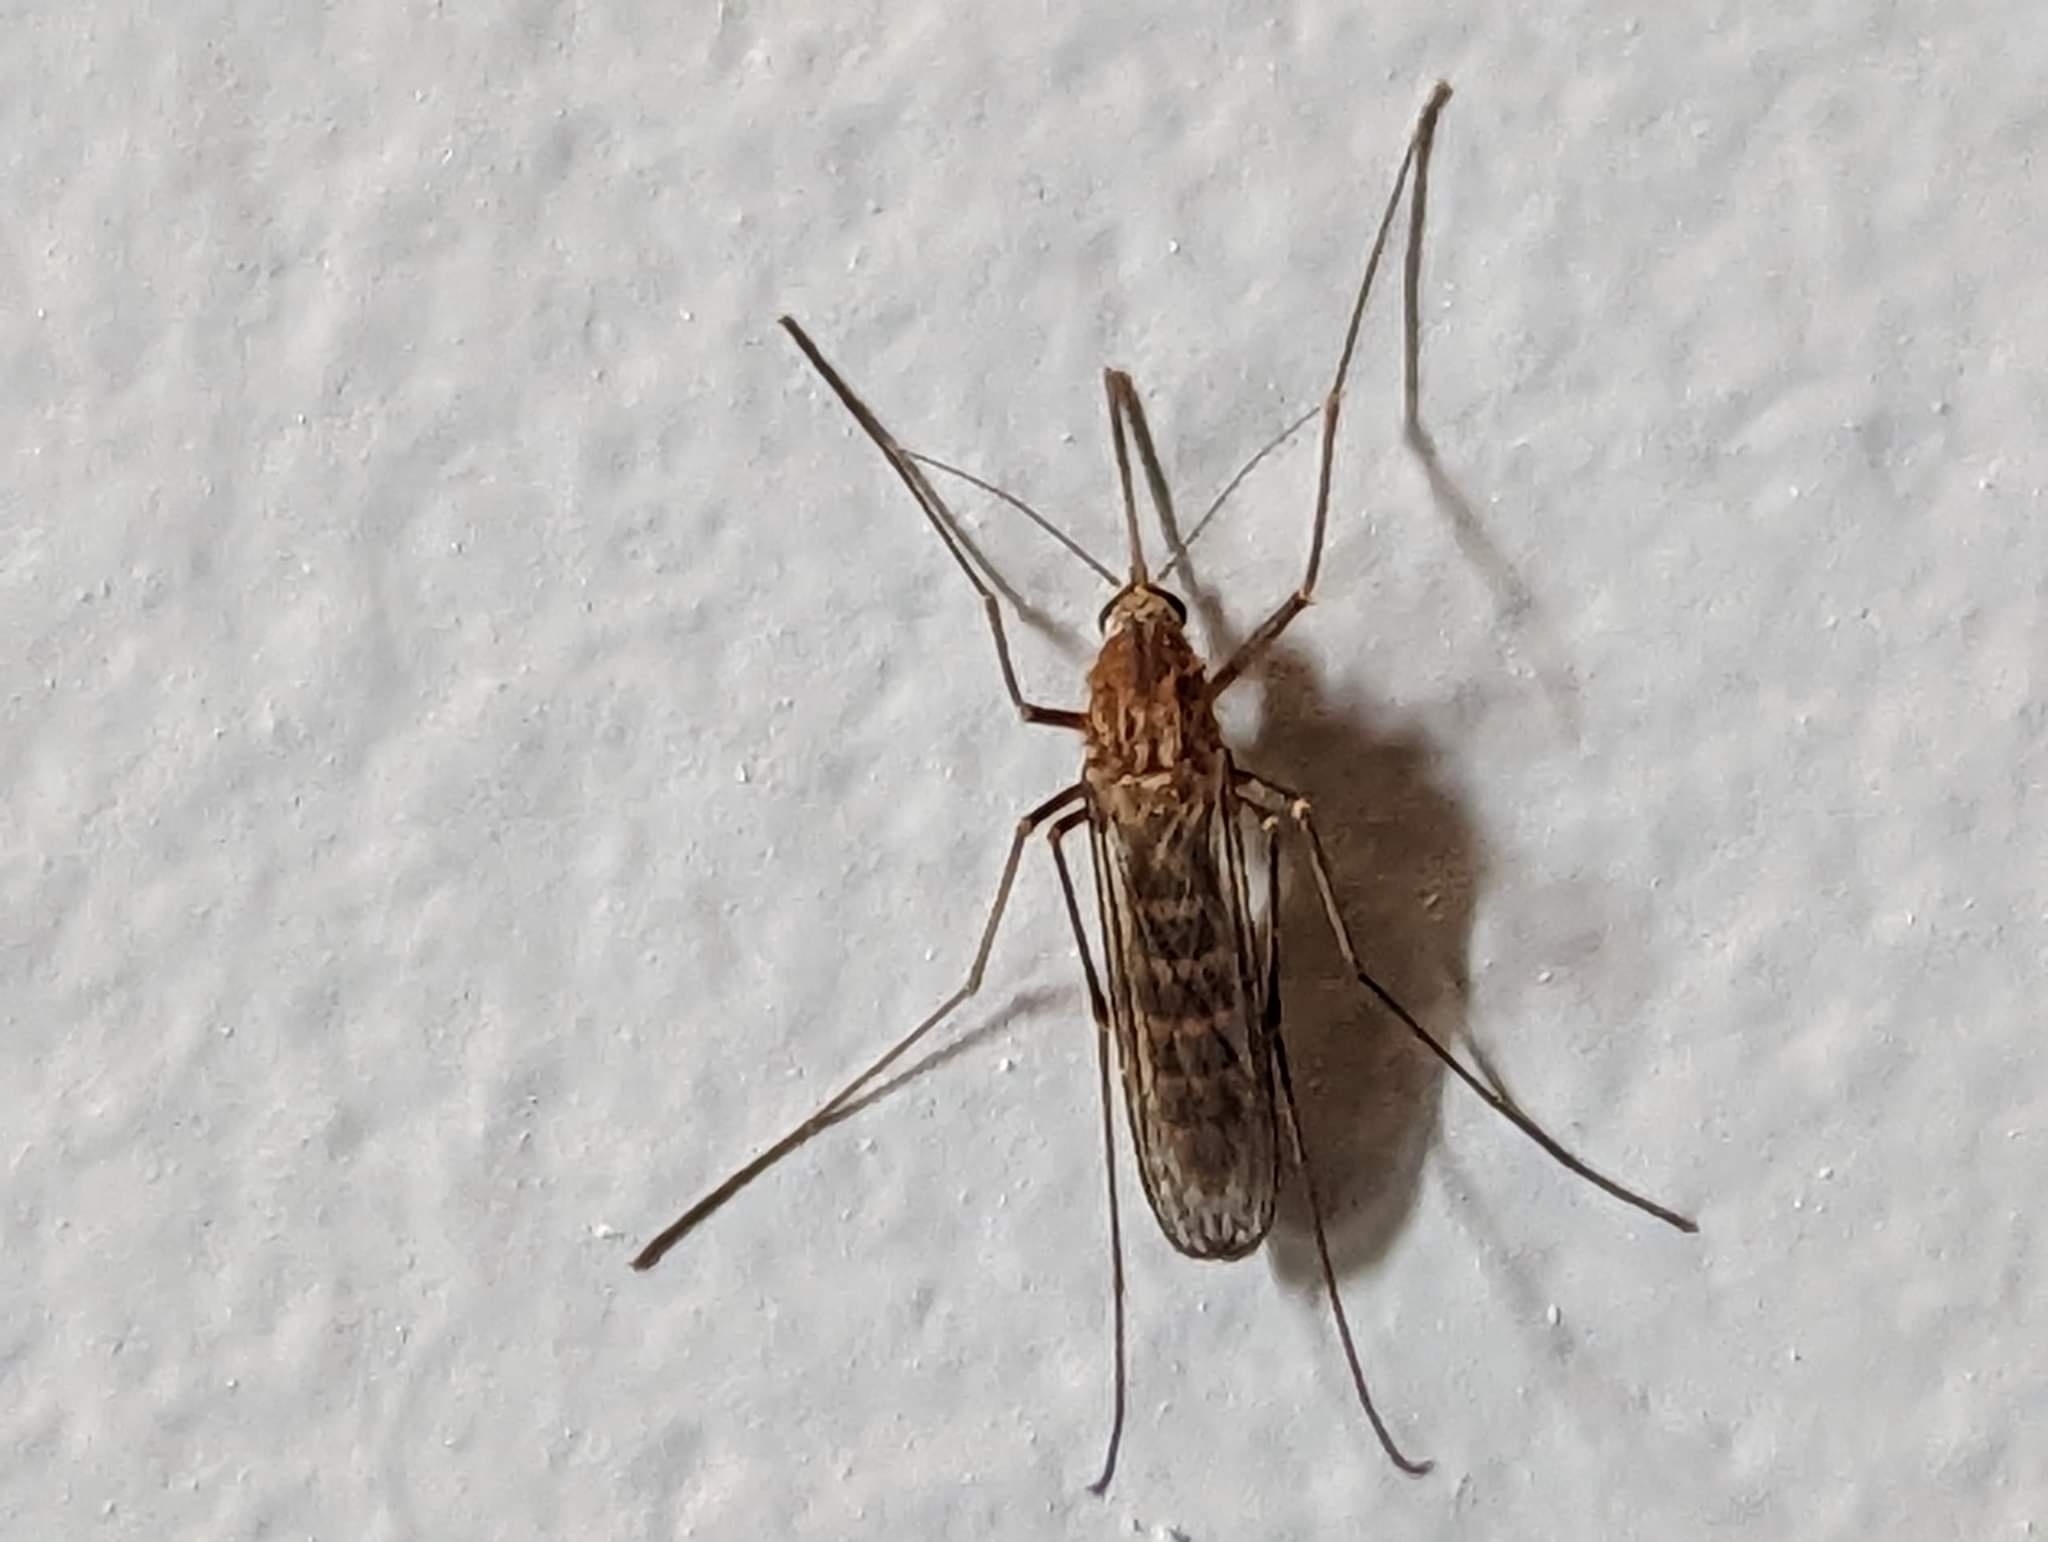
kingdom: Animalia
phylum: Arthropoda
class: Insecta
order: Diptera
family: Culicidae
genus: Culex
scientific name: Culex restuans
